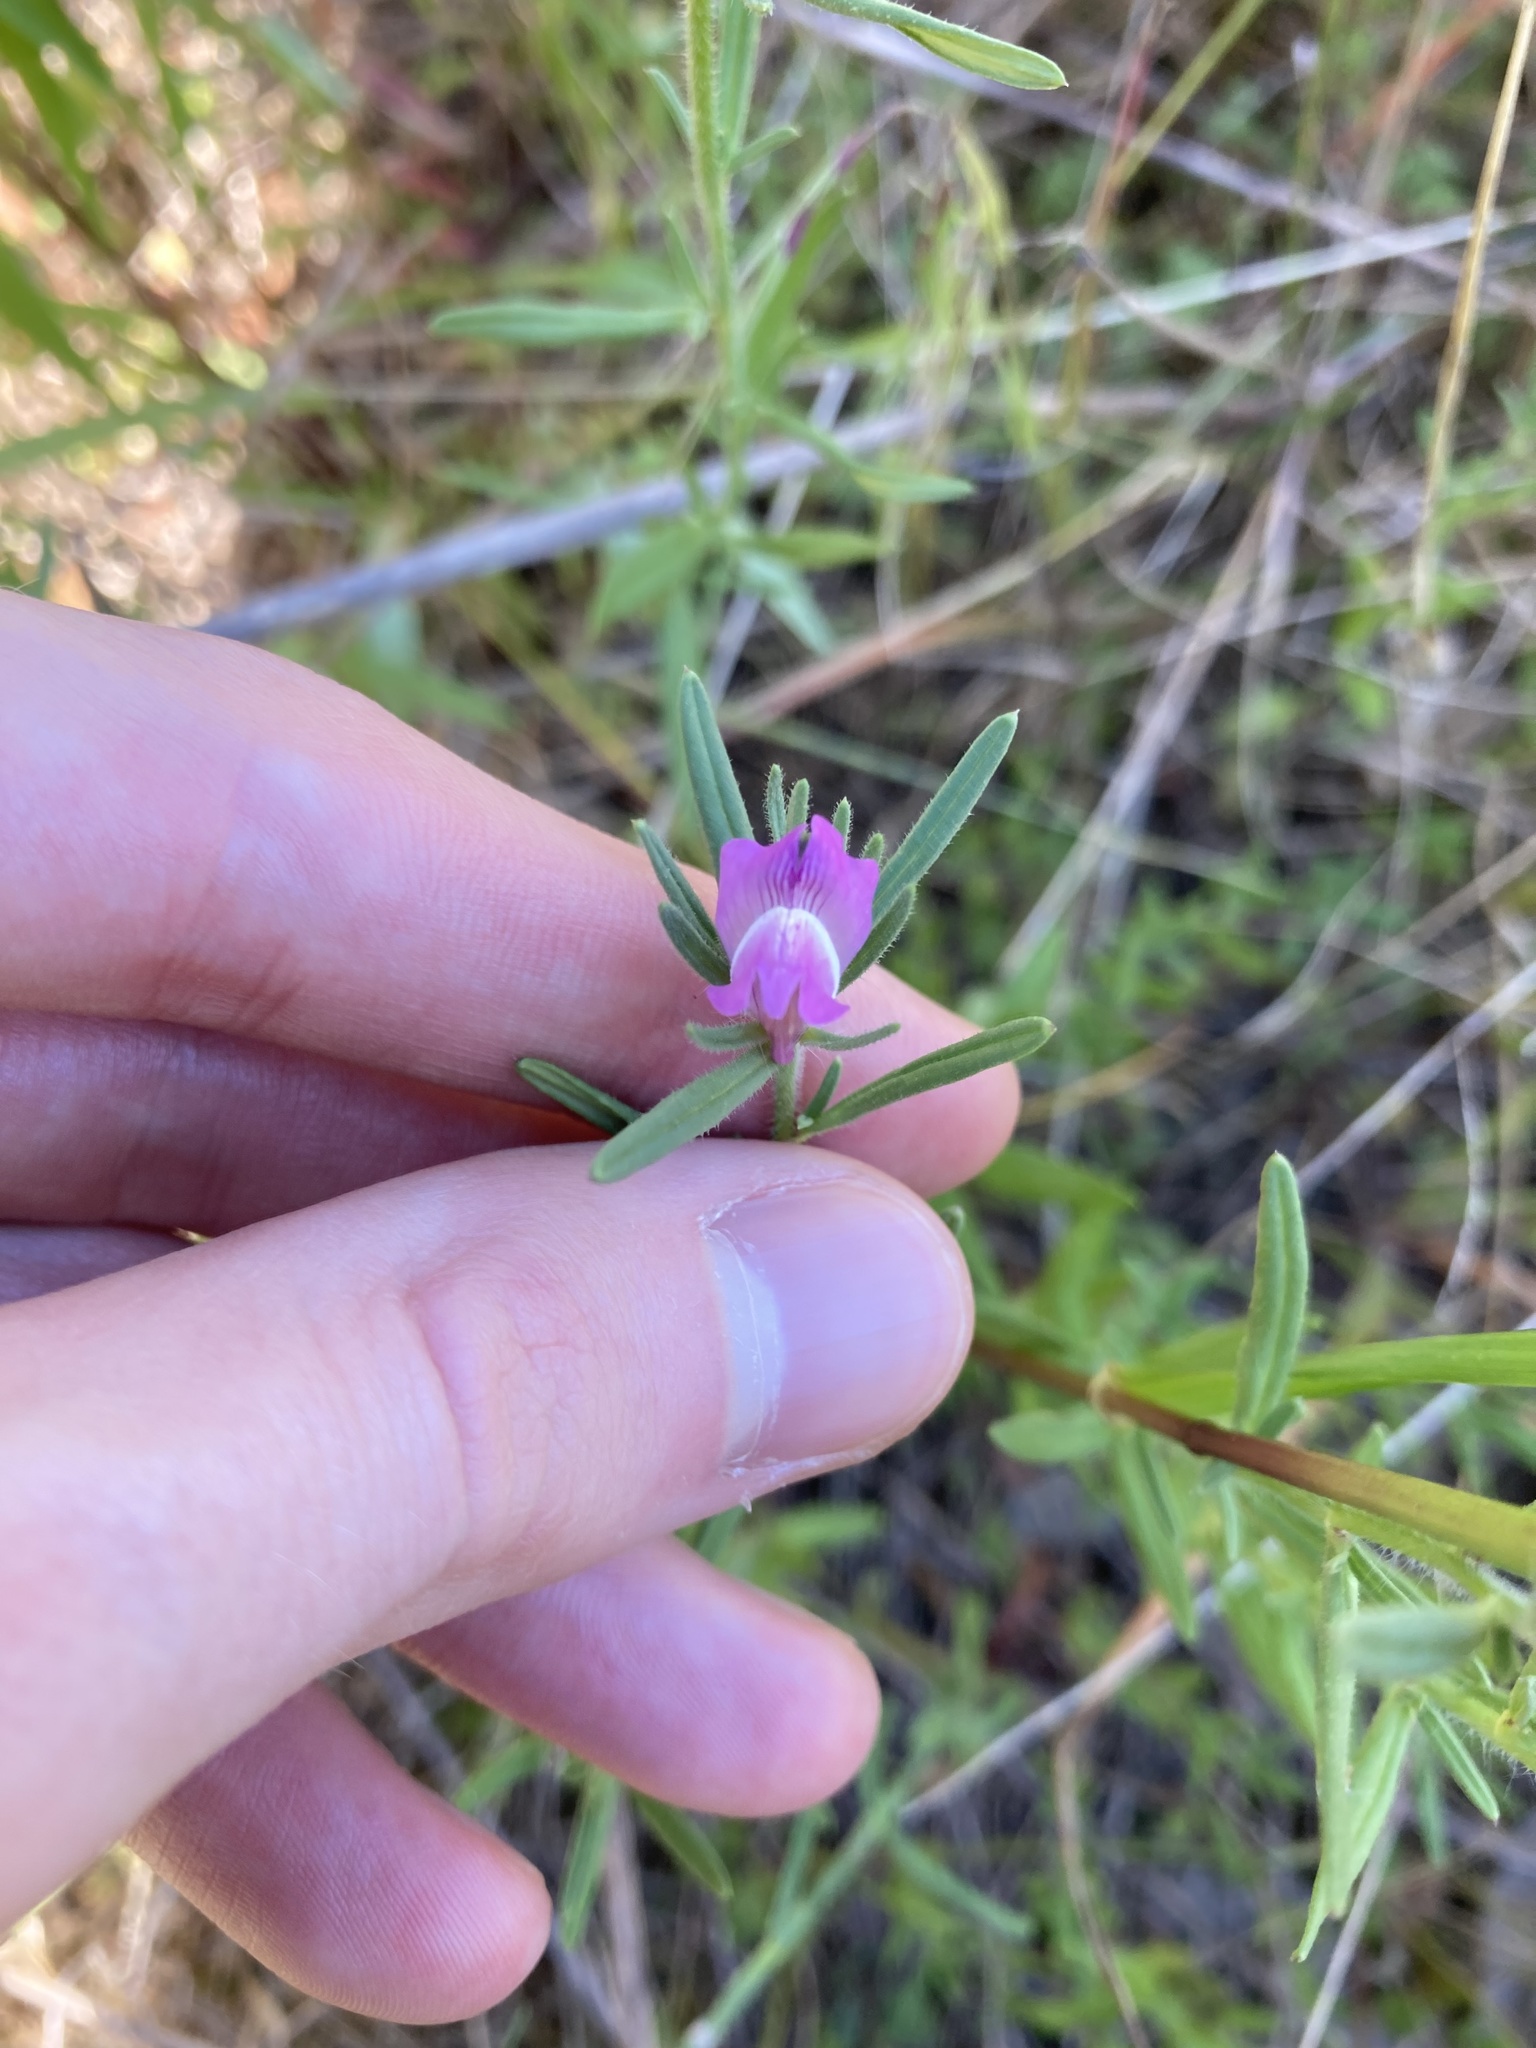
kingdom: Plantae
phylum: Tracheophyta
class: Magnoliopsida
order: Lamiales
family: Plantaginaceae
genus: Misopates
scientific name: Misopates orontium
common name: Weasel's-snout
